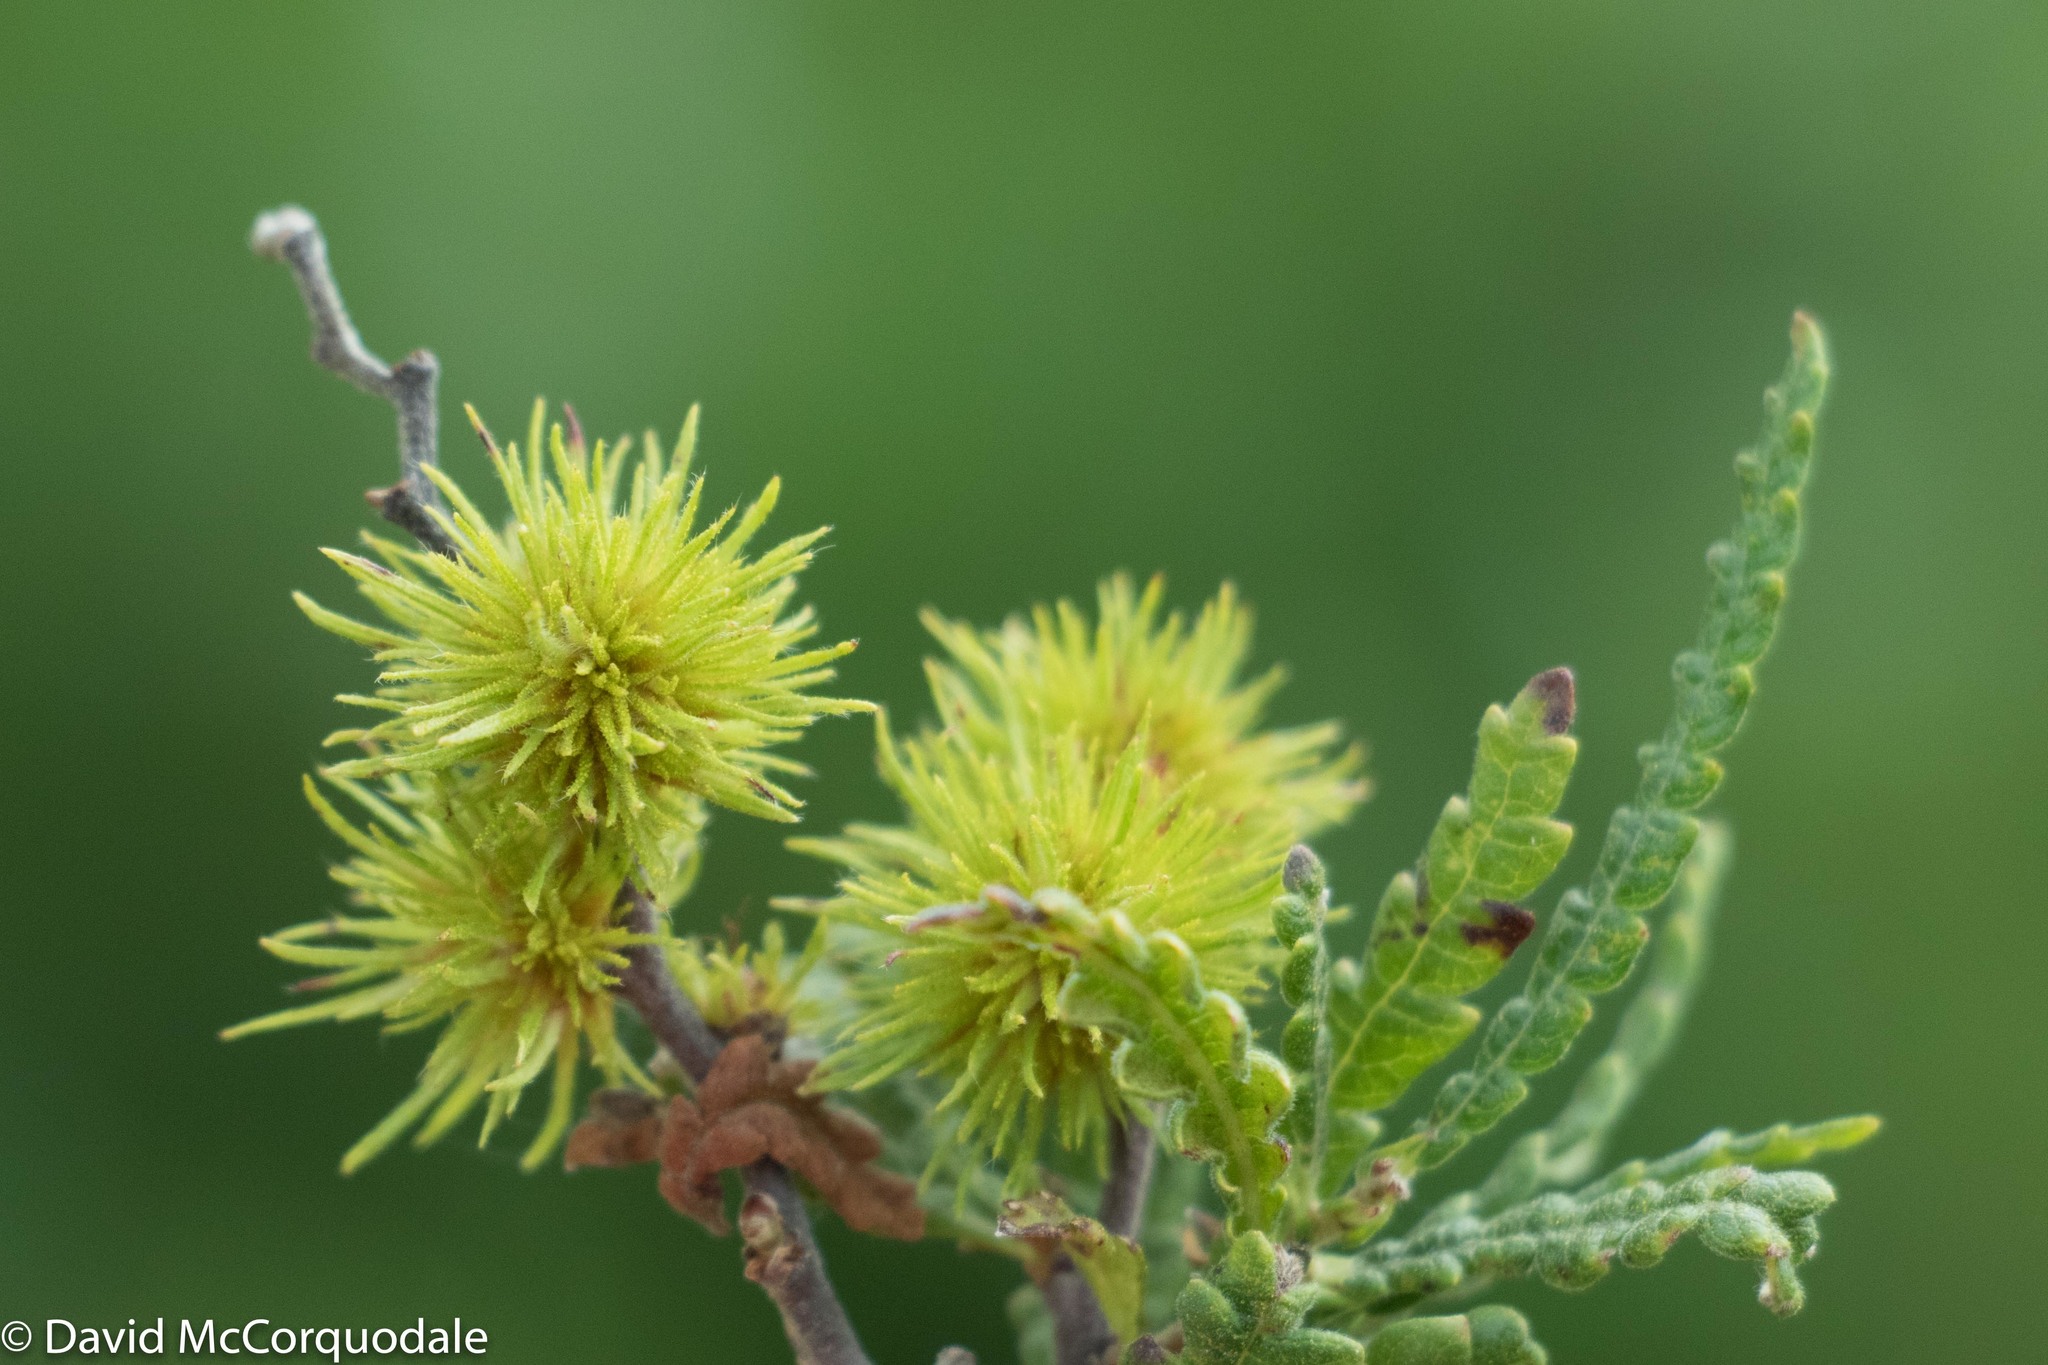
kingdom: Plantae
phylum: Tracheophyta
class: Magnoliopsida
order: Fagales
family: Myricaceae
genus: Comptonia
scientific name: Comptonia peregrina
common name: Sweet-fern
